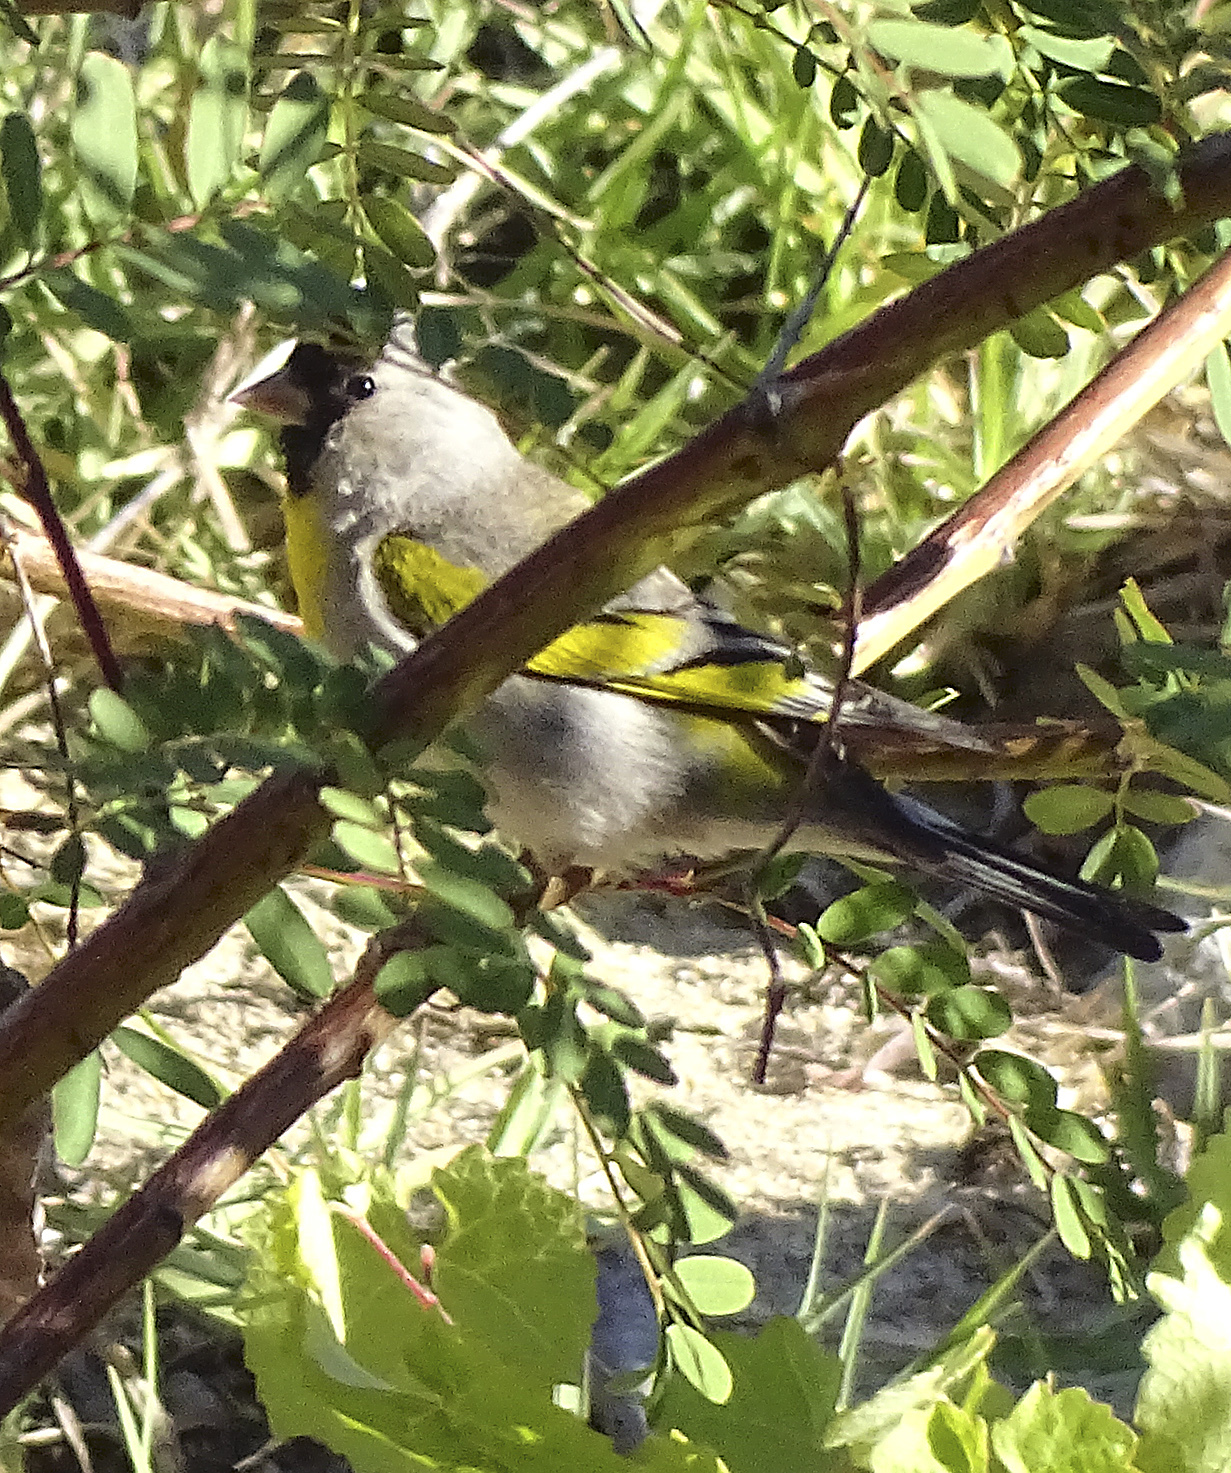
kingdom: Animalia
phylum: Chordata
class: Aves
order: Passeriformes
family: Fringillidae
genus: Spinus
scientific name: Spinus lawrencei
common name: Lawrence's goldfinch
